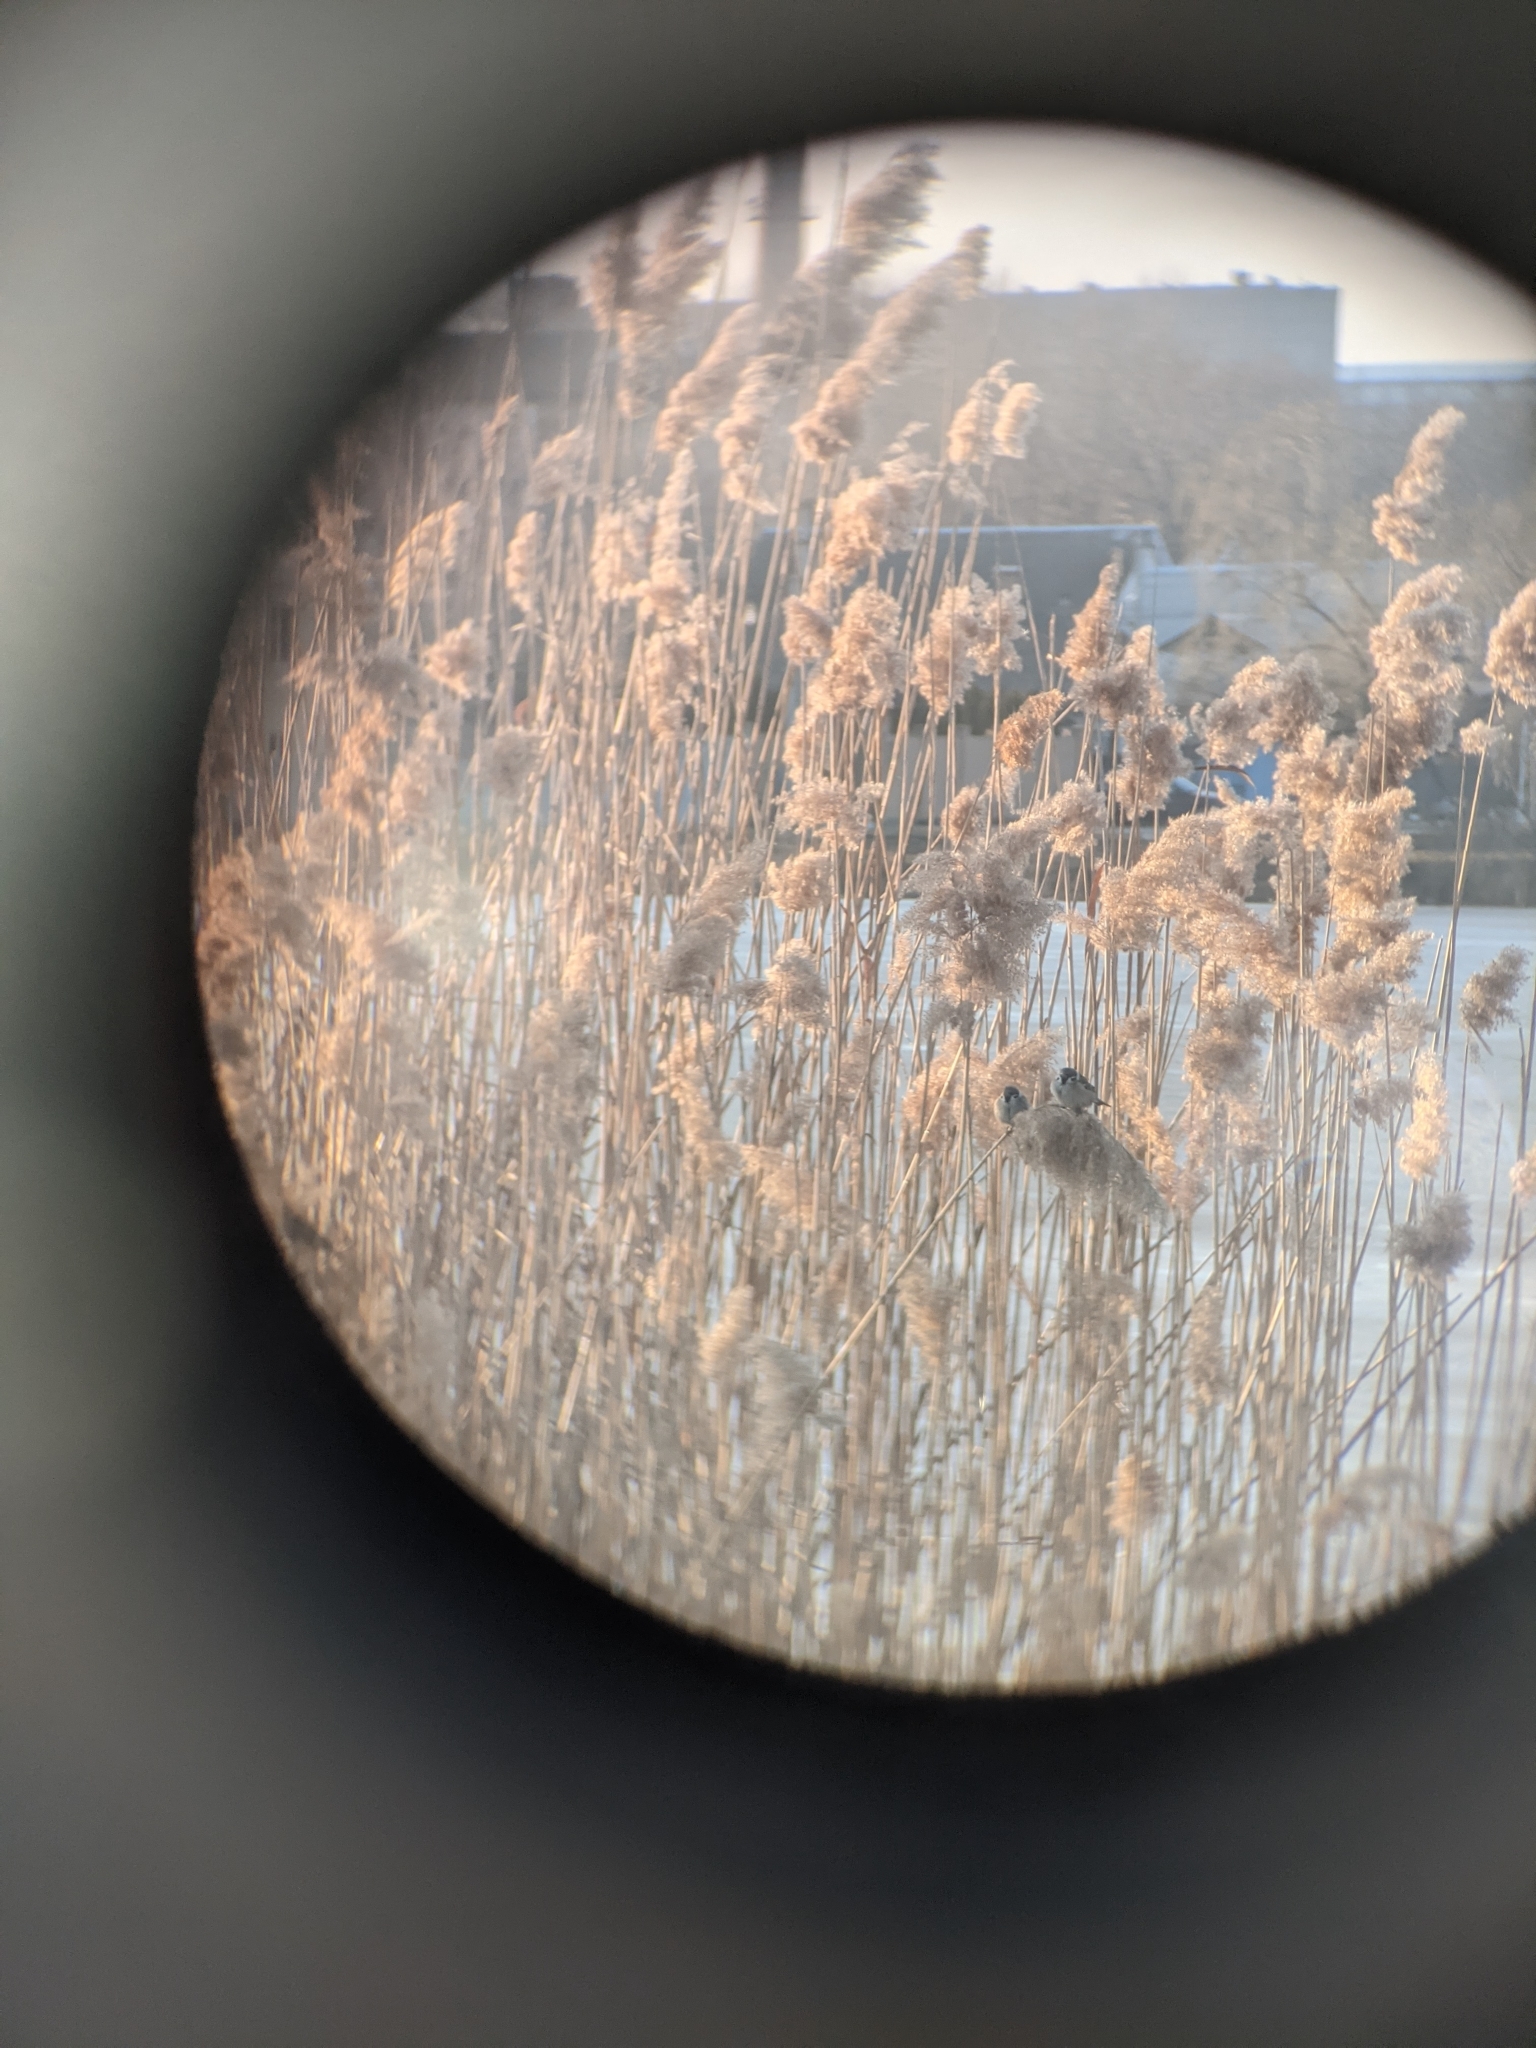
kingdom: Animalia
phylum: Chordata
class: Aves
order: Passeriformes
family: Passeridae
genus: Passer
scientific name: Passer montanus
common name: Eurasian tree sparrow
